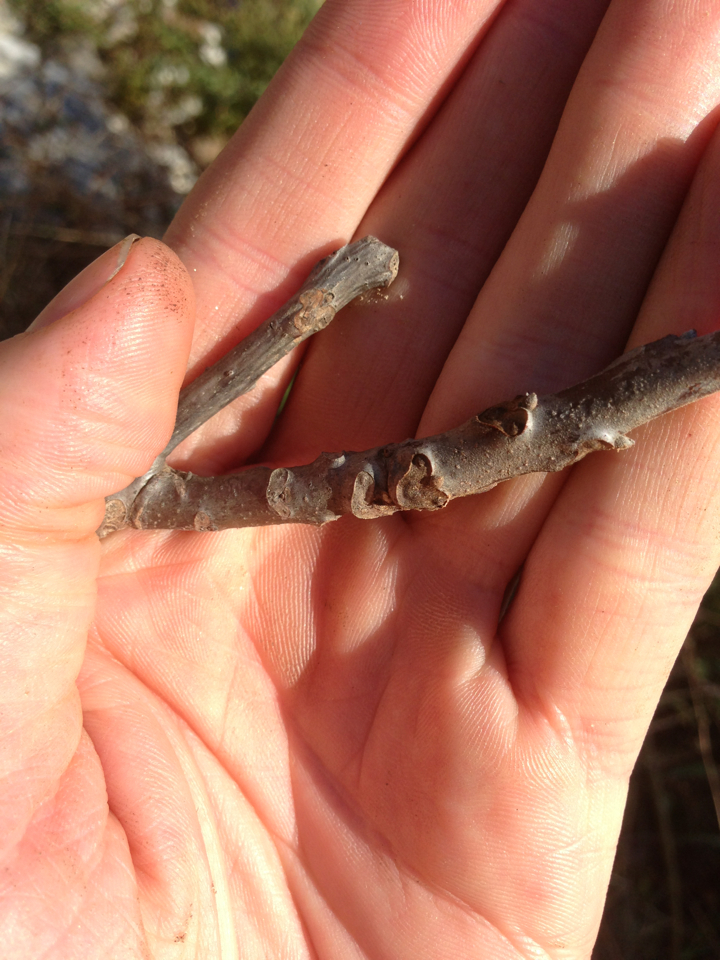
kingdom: Plantae
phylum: Tracheophyta
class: Magnoliopsida
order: Fagales
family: Juglandaceae
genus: Juglans
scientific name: Juglans nigra
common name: Black walnut
